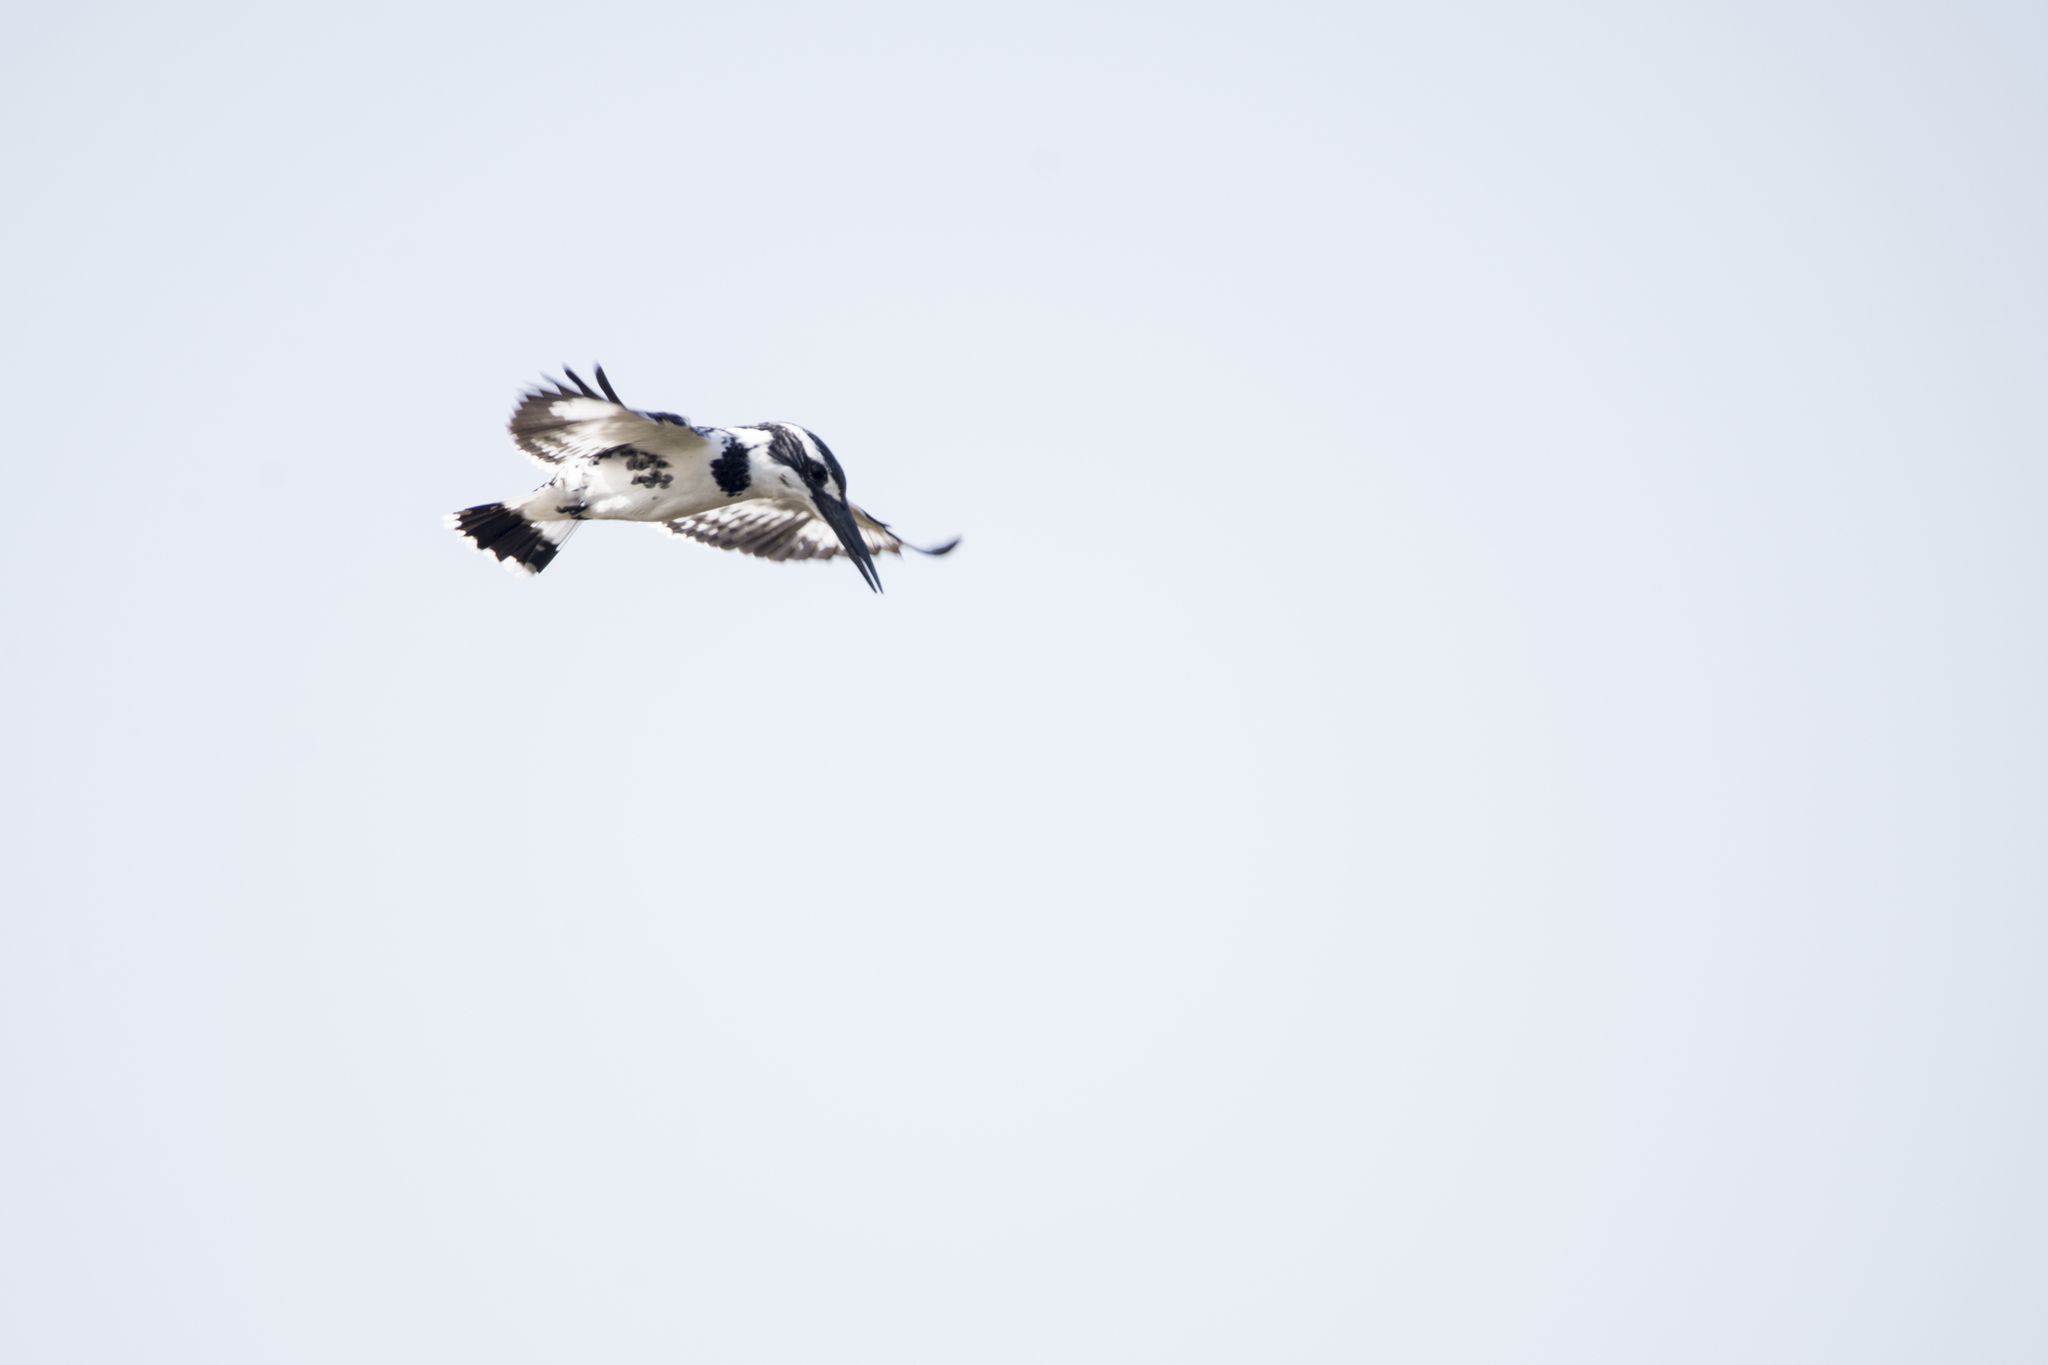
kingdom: Animalia
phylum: Chordata
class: Aves
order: Coraciiformes
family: Alcedinidae
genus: Ceryle
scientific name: Ceryle rudis
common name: Pied kingfisher
